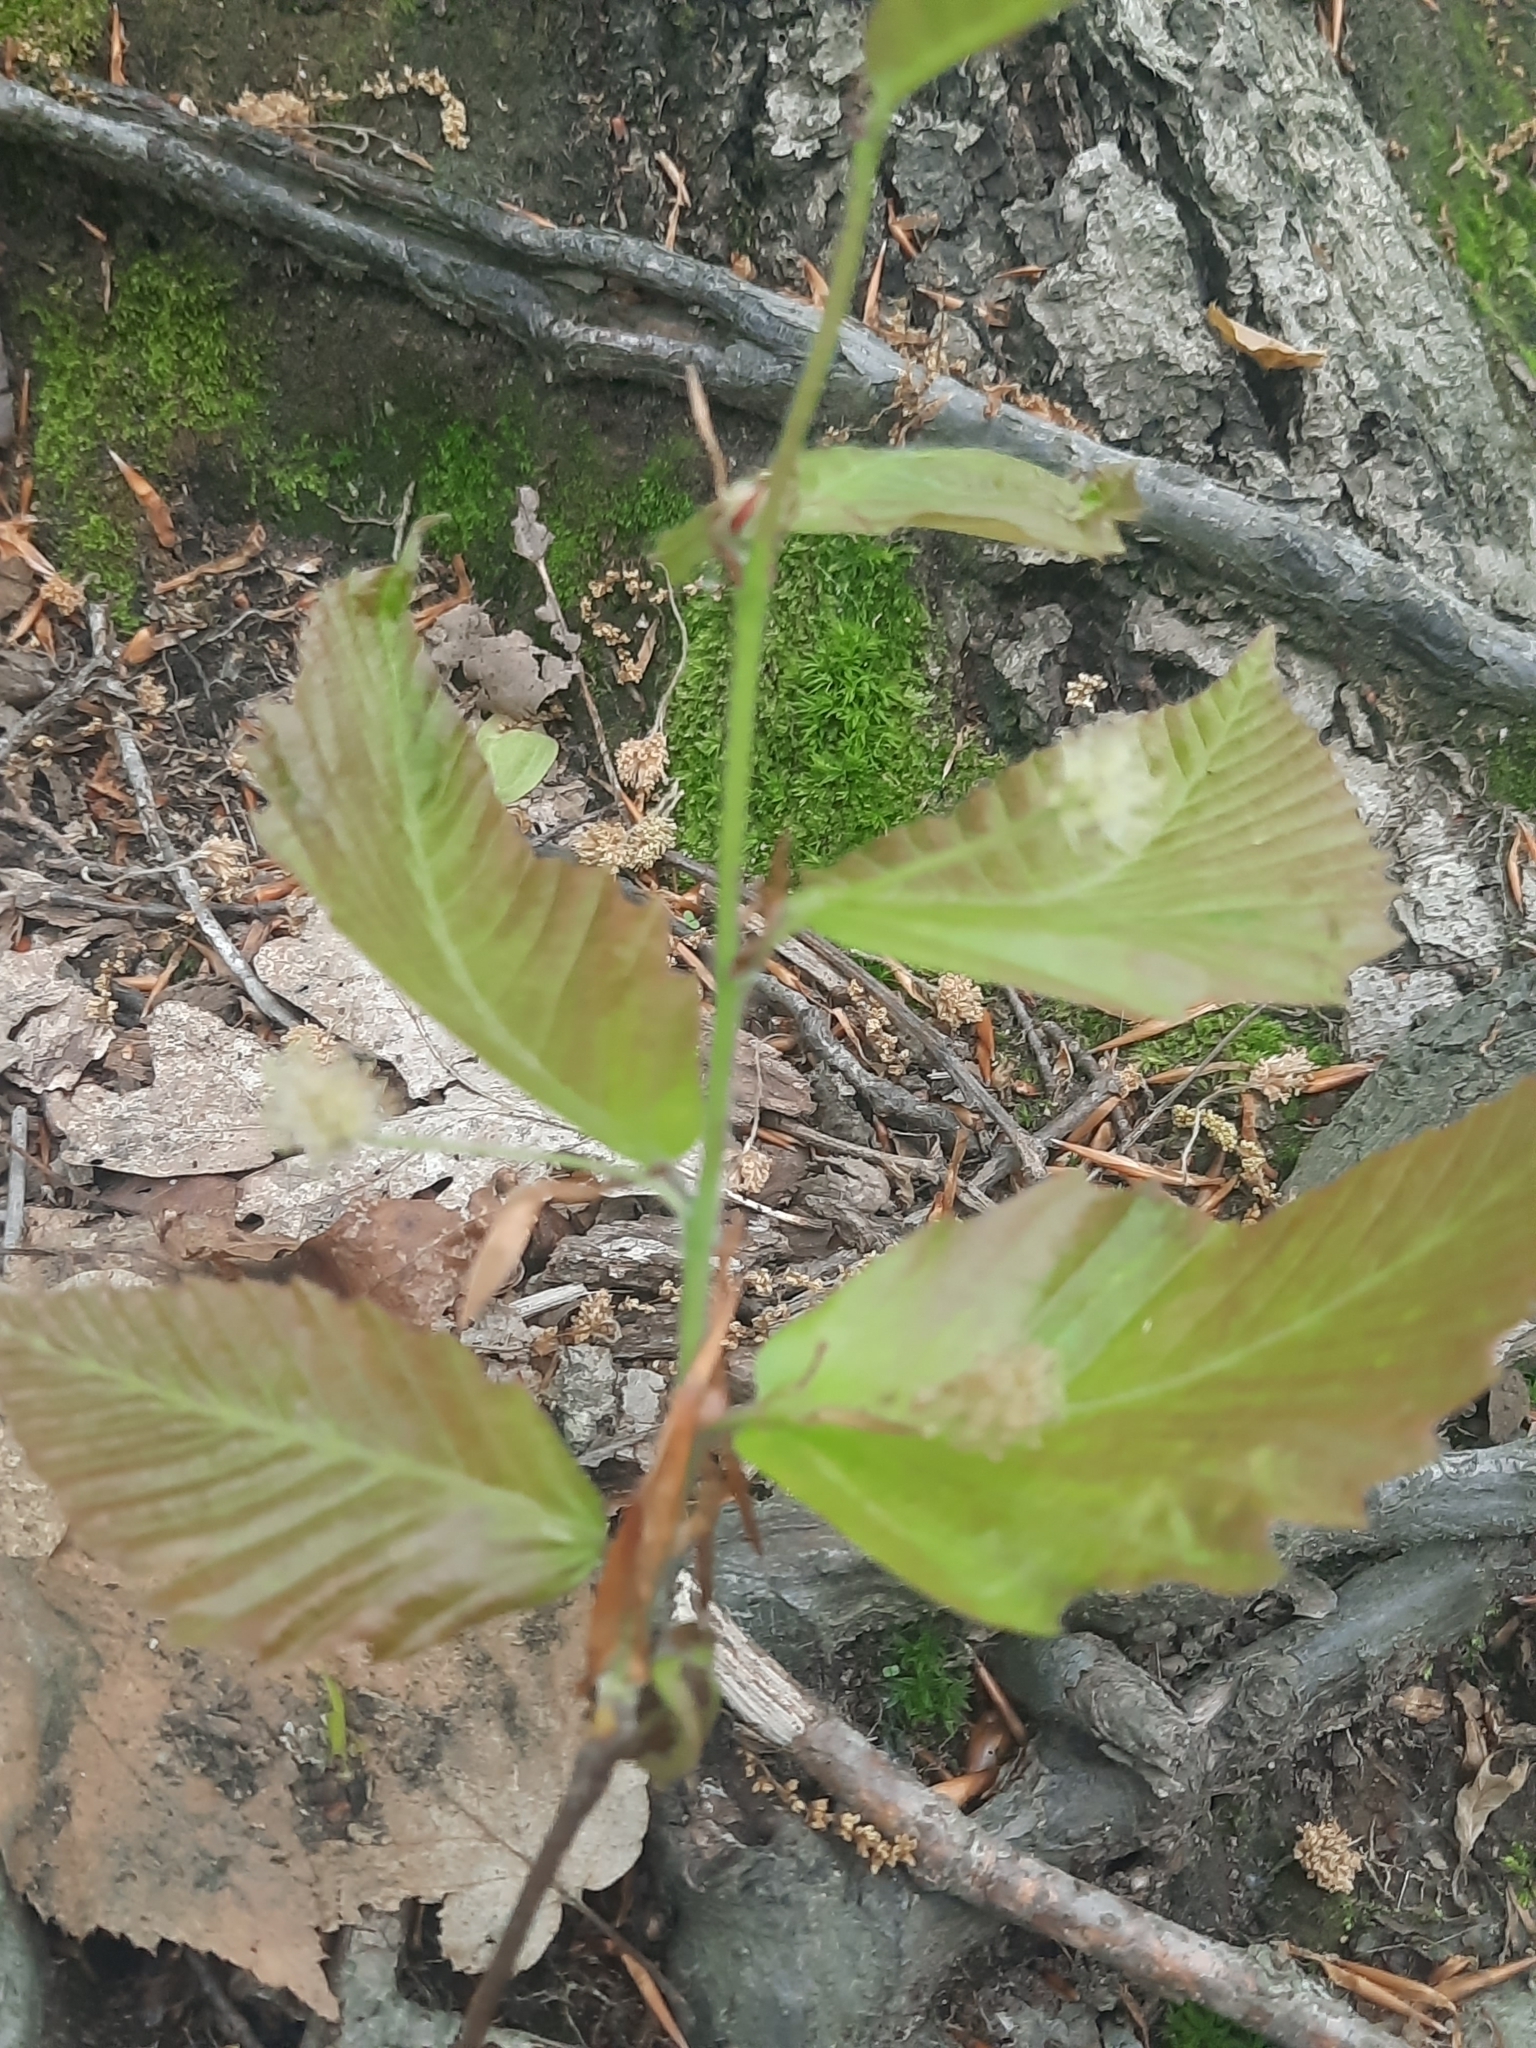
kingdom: Plantae
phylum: Tracheophyta
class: Magnoliopsida
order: Fagales
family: Fagaceae
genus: Fagus
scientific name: Fagus grandifolia
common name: American beech
